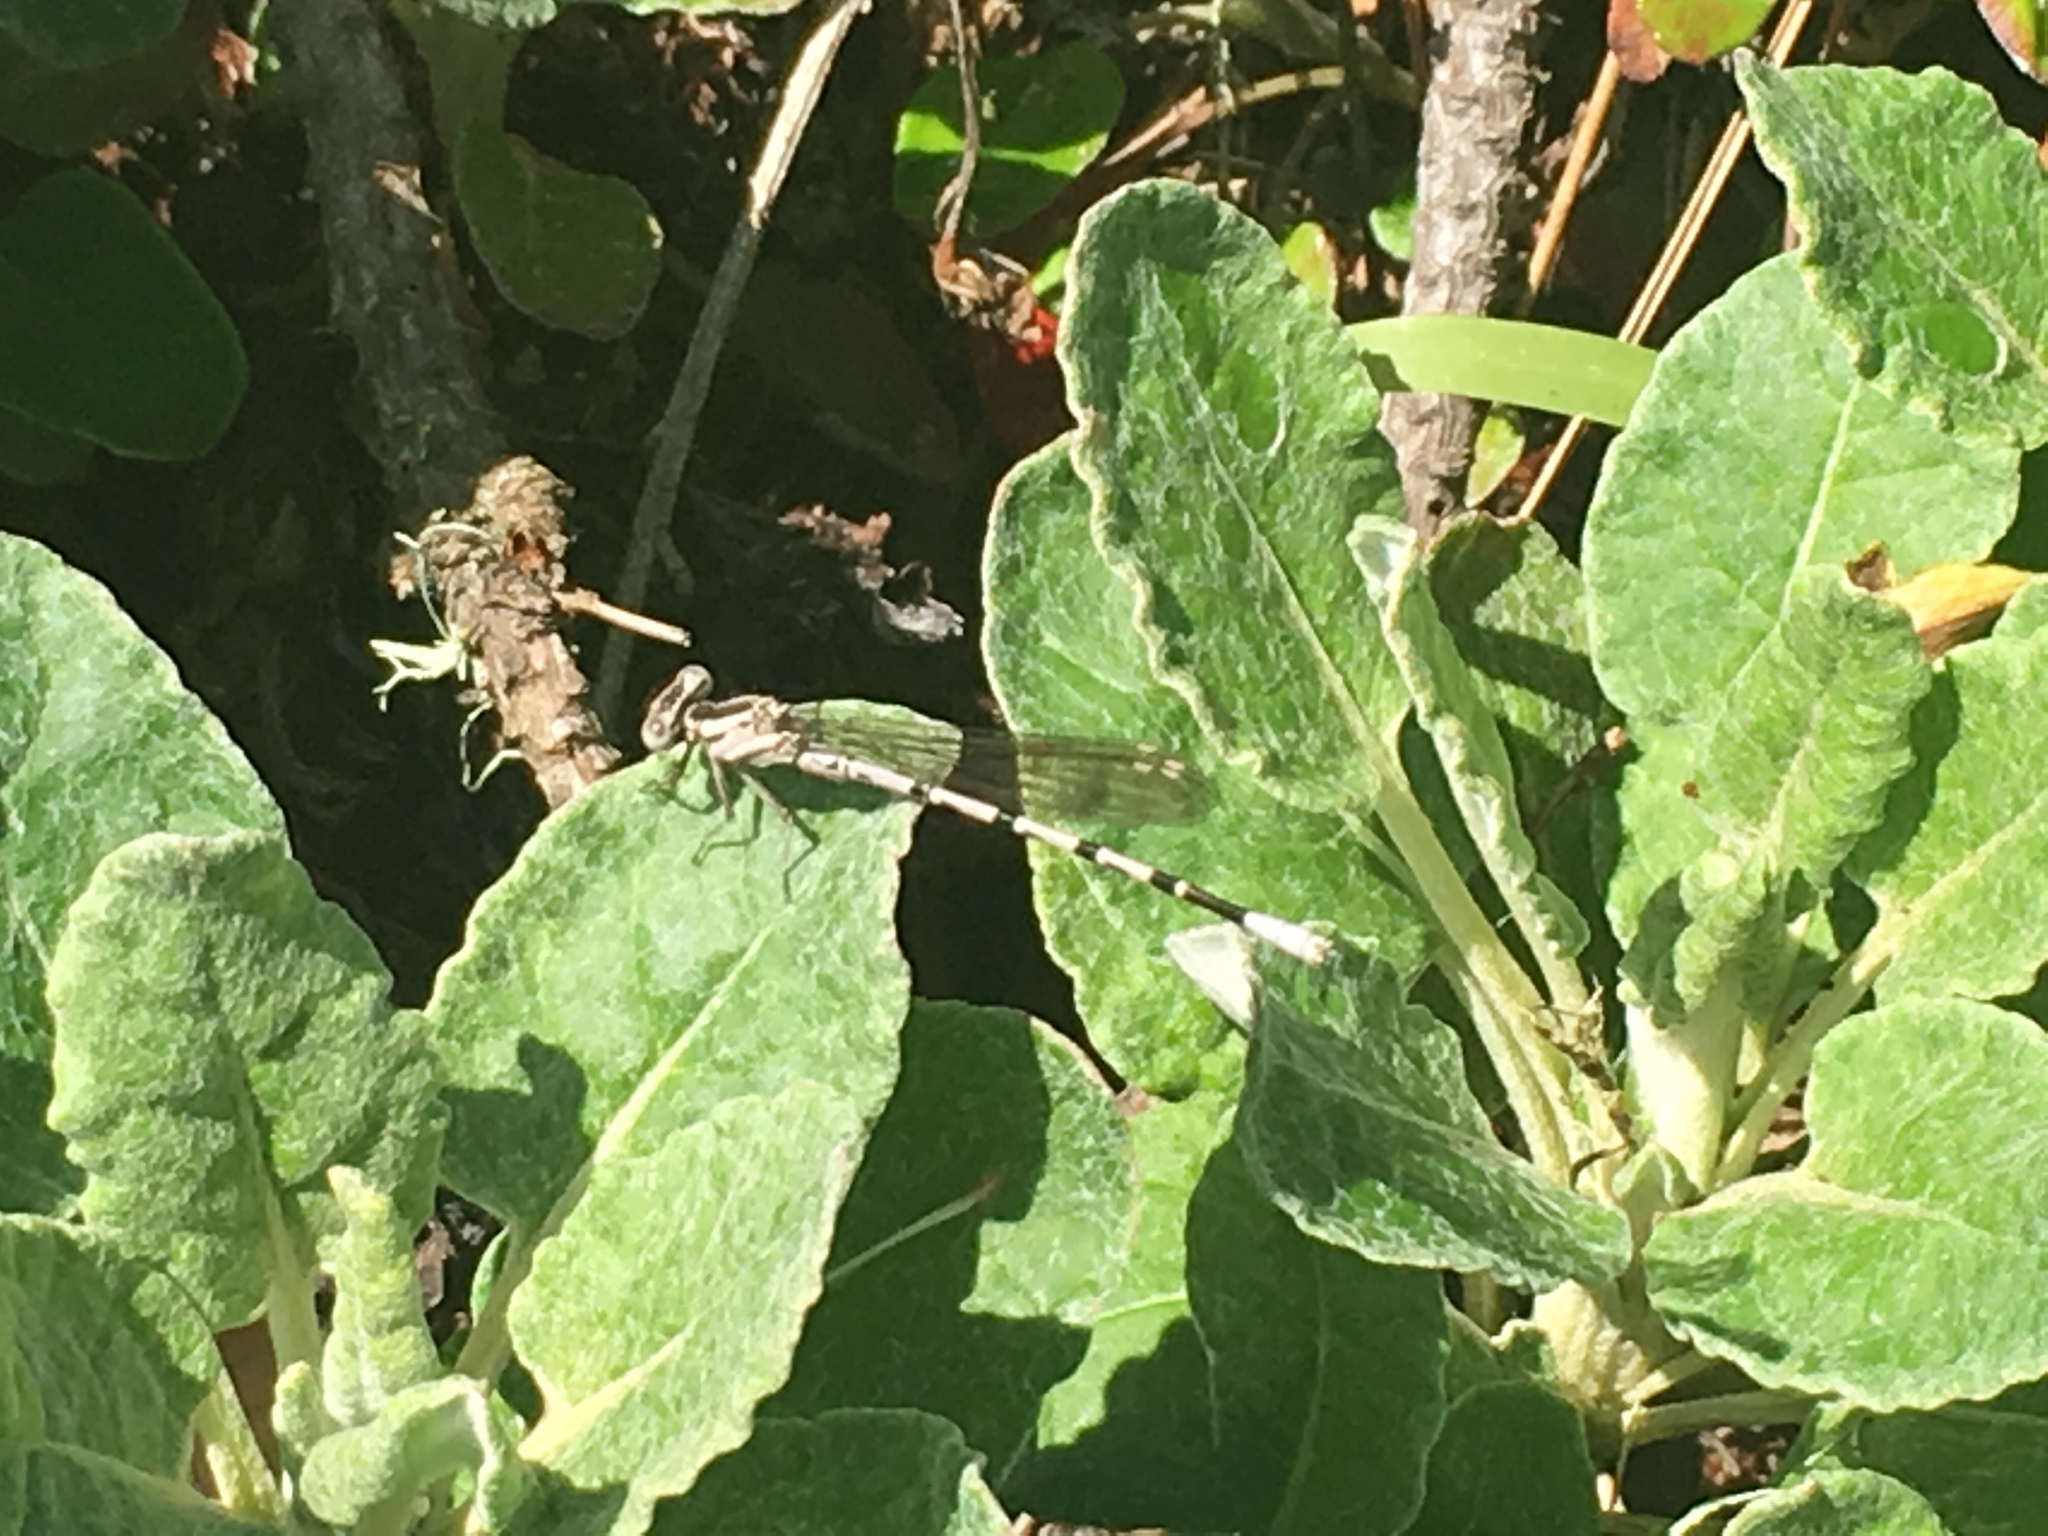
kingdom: Animalia
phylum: Arthropoda
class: Insecta
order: Odonata
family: Coenagrionidae
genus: Argia
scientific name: Argia vivida
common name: Vivid dancer
